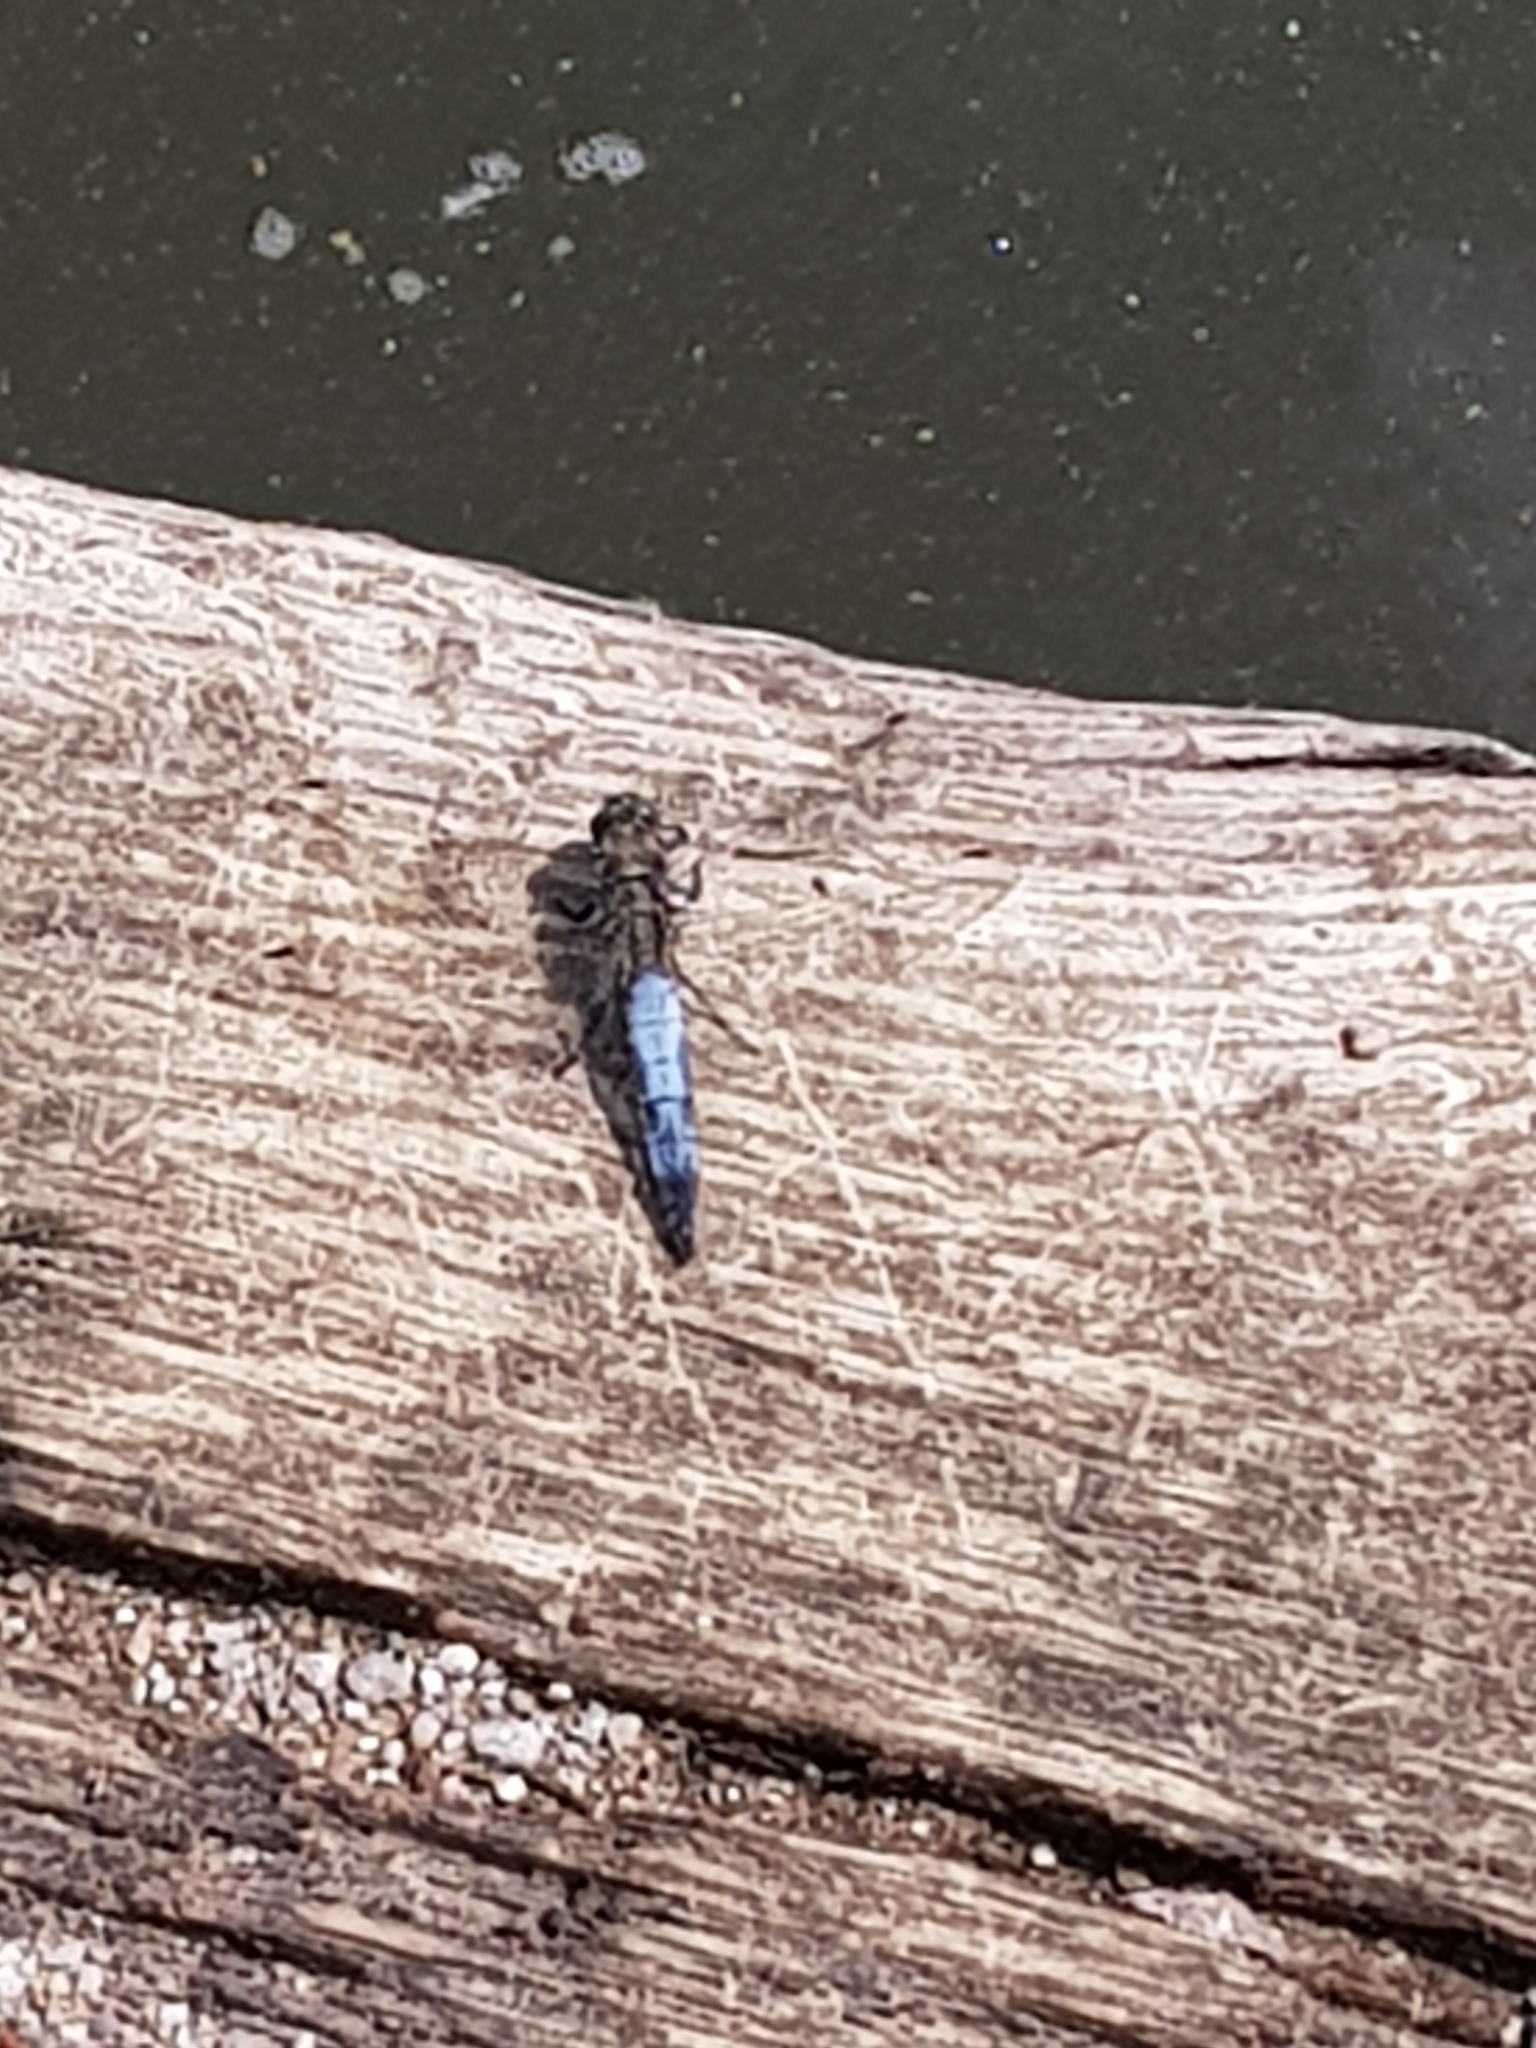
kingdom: Animalia
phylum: Arthropoda
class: Insecta
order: Odonata
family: Libellulidae
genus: Orthetrum
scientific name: Orthetrum cancellatum
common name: Black-tailed skimmer
